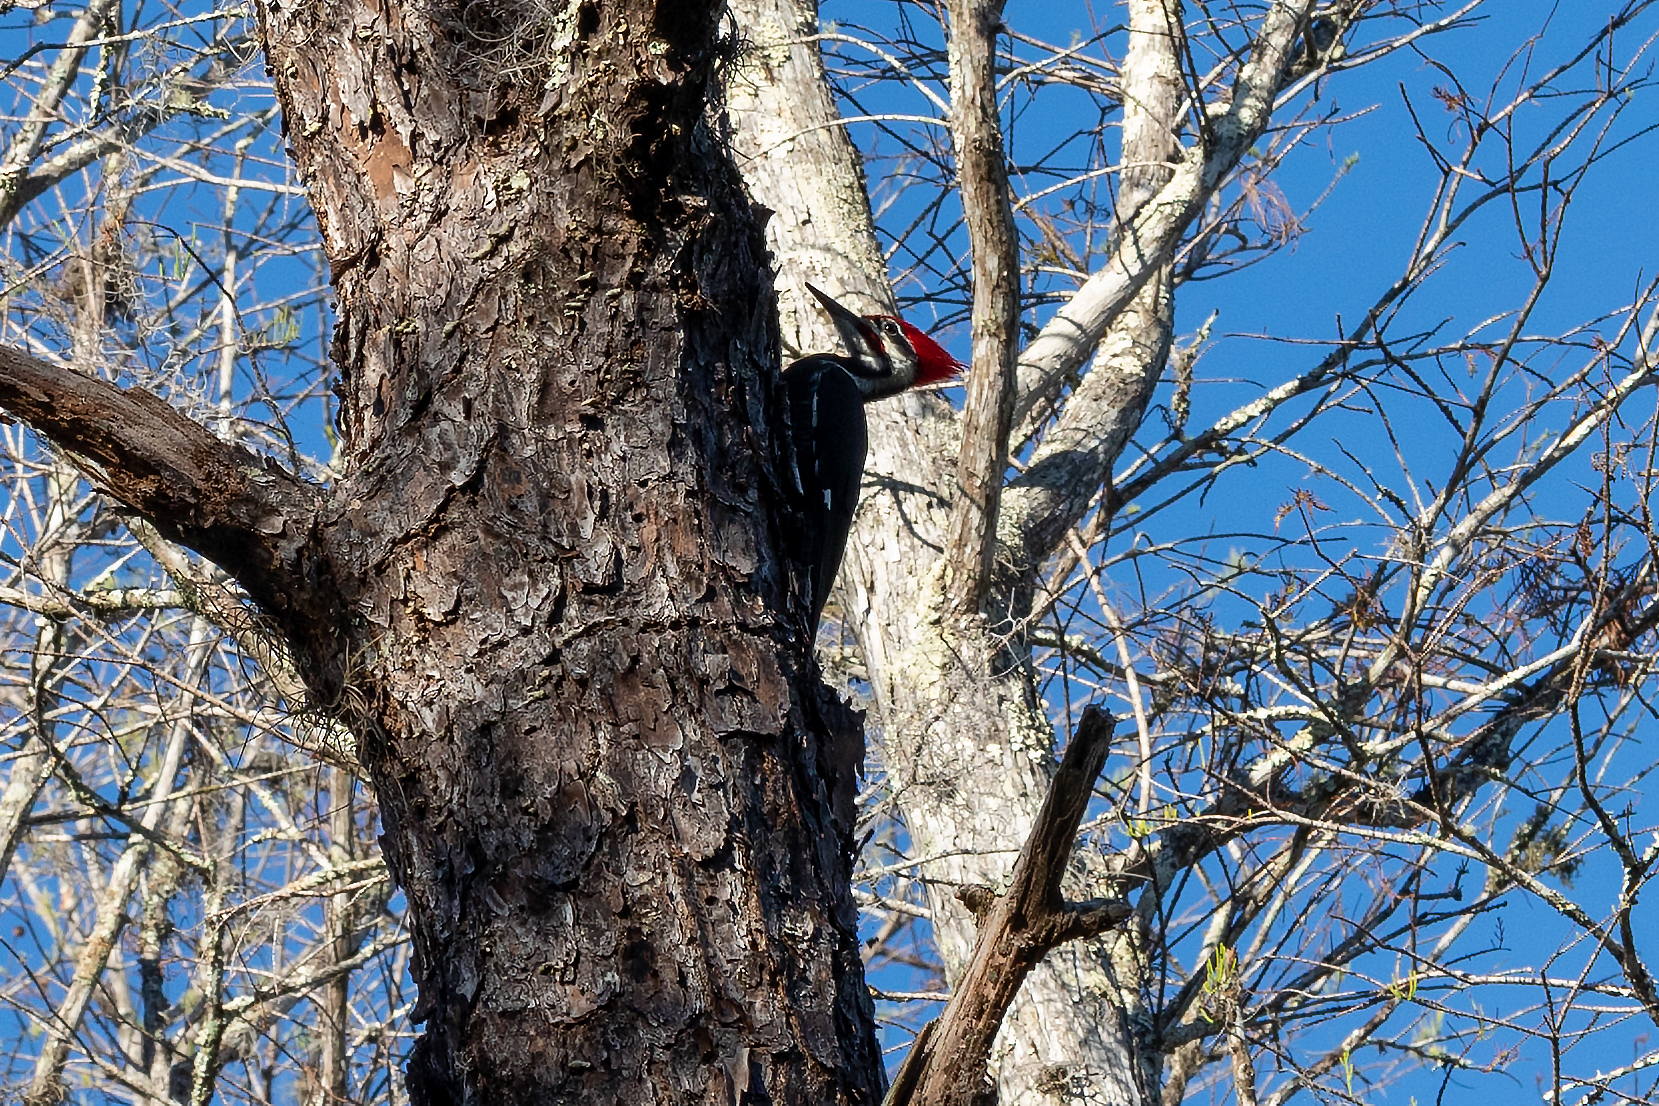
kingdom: Animalia
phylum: Chordata
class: Aves
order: Piciformes
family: Picidae
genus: Dryocopus
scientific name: Dryocopus pileatus
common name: Pileated woodpecker
